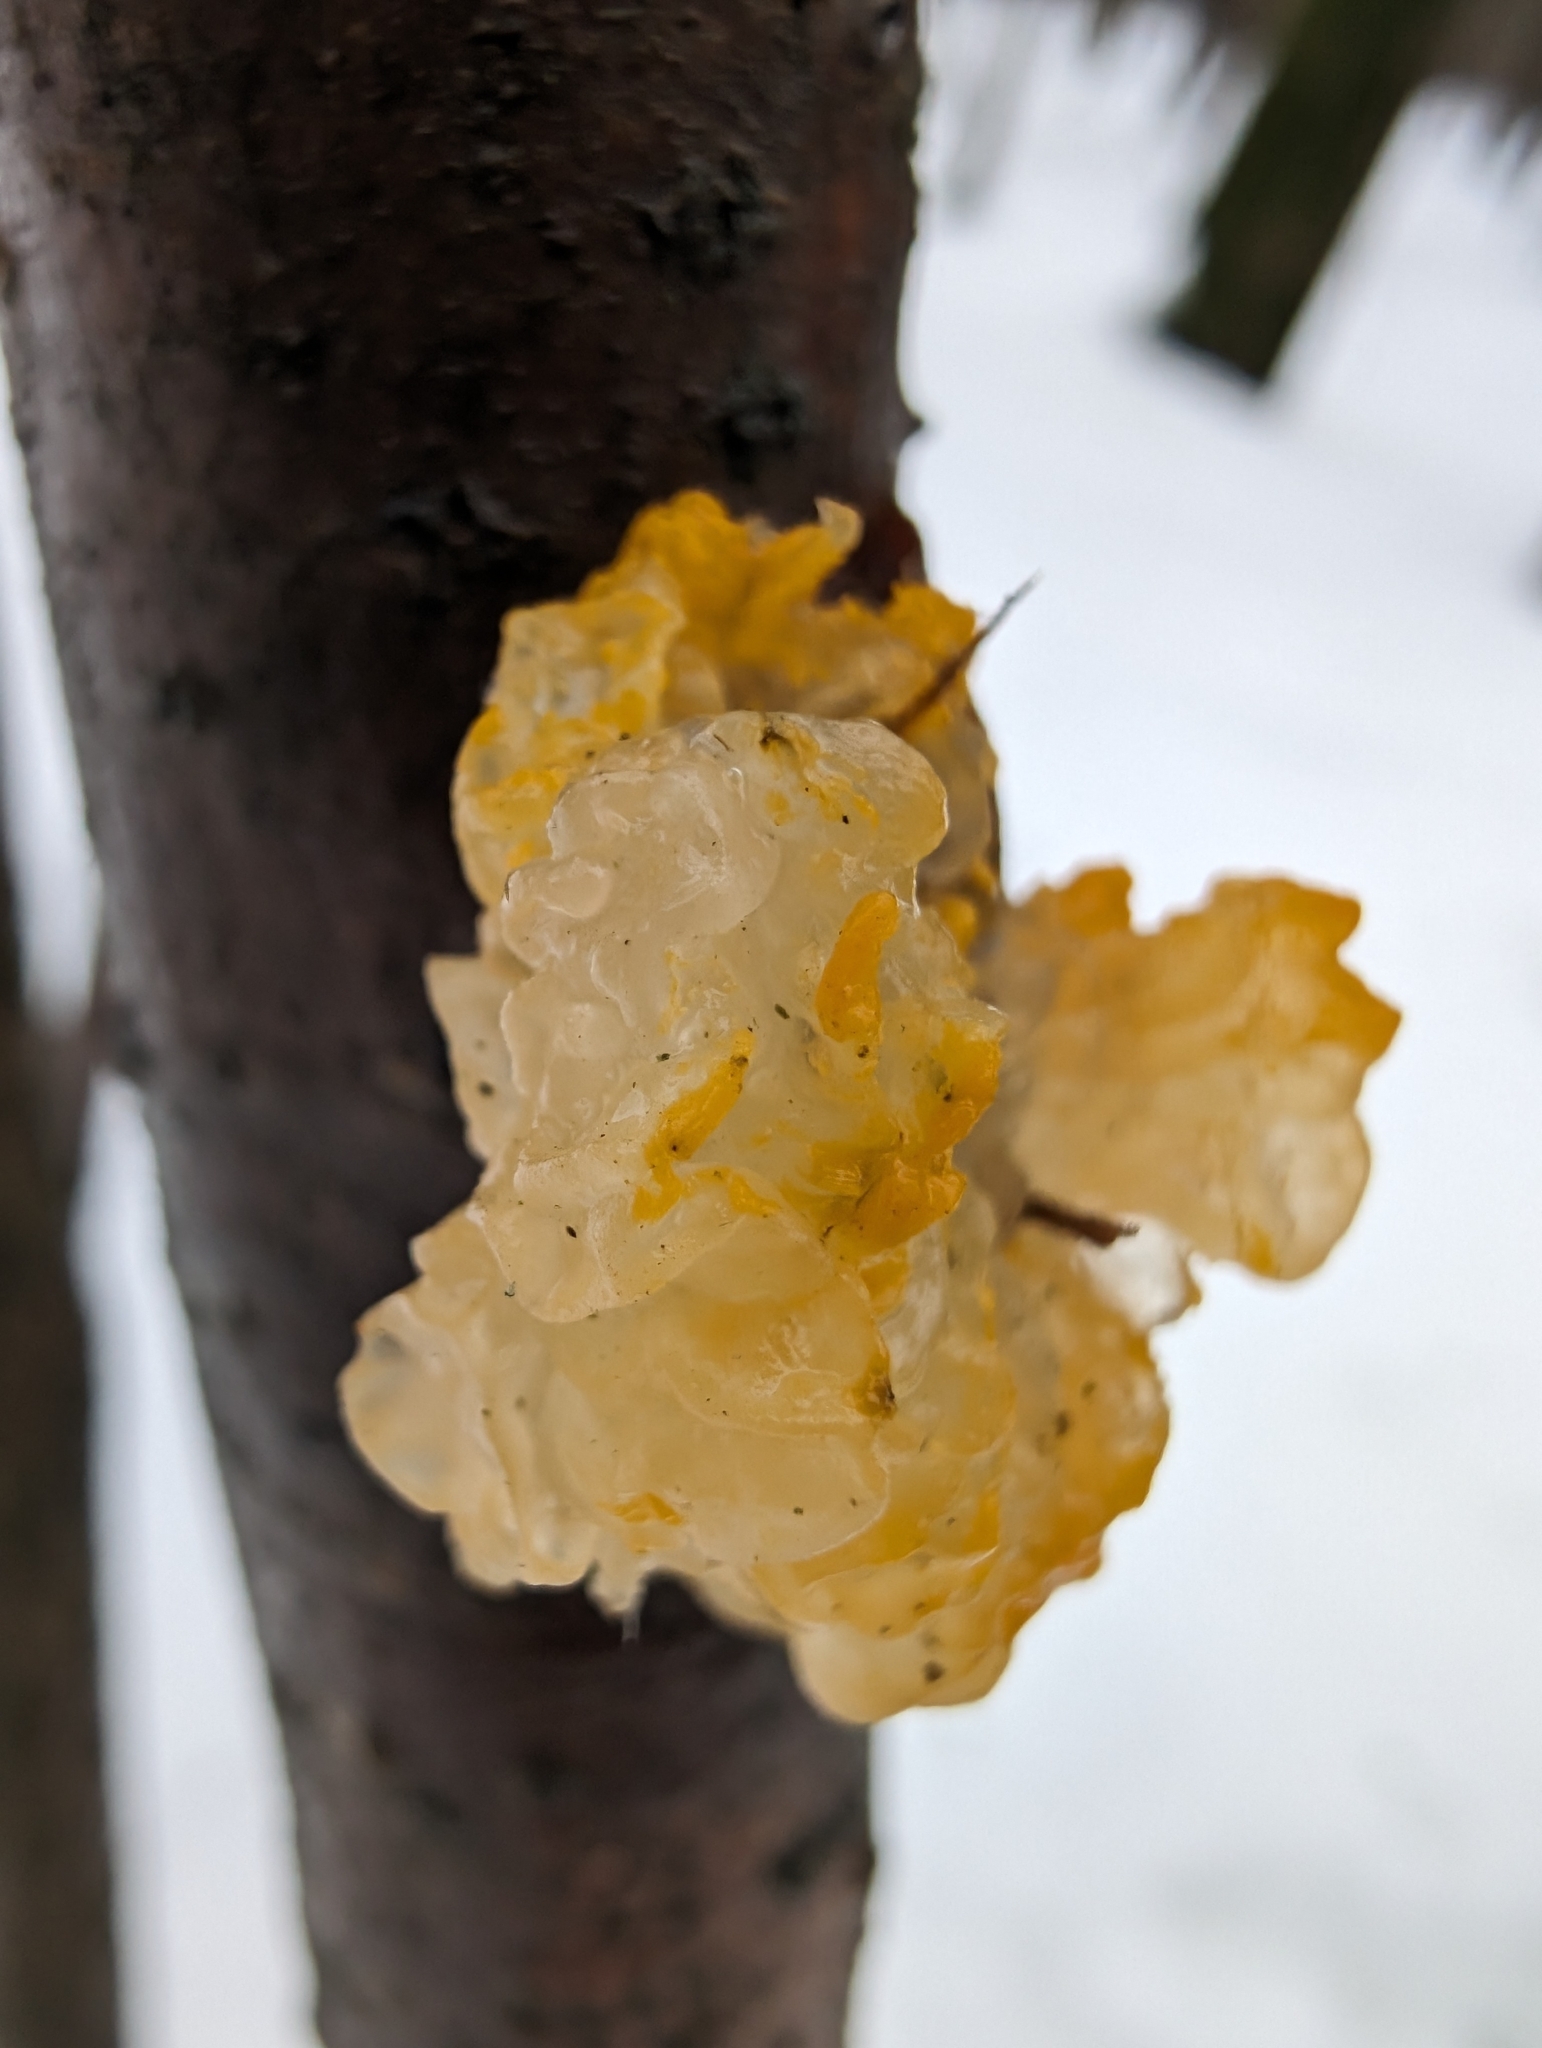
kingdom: Fungi
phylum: Basidiomycota
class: Tremellomycetes
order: Tremellales
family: Tremellaceae
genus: Tremella
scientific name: Tremella mesenterica
